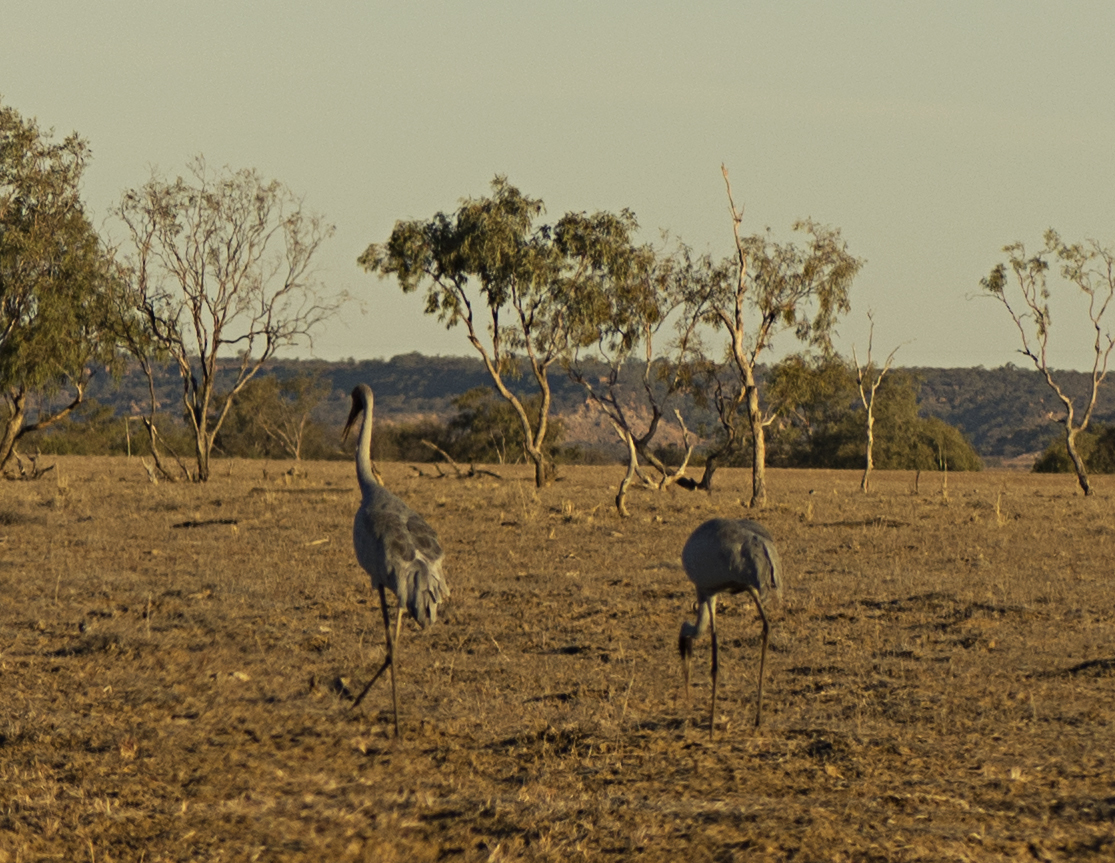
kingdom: Animalia
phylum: Chordata
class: Aves
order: Gruiformes
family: Gruidae
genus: Grus
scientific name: Grus rubicunda
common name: Brolga
